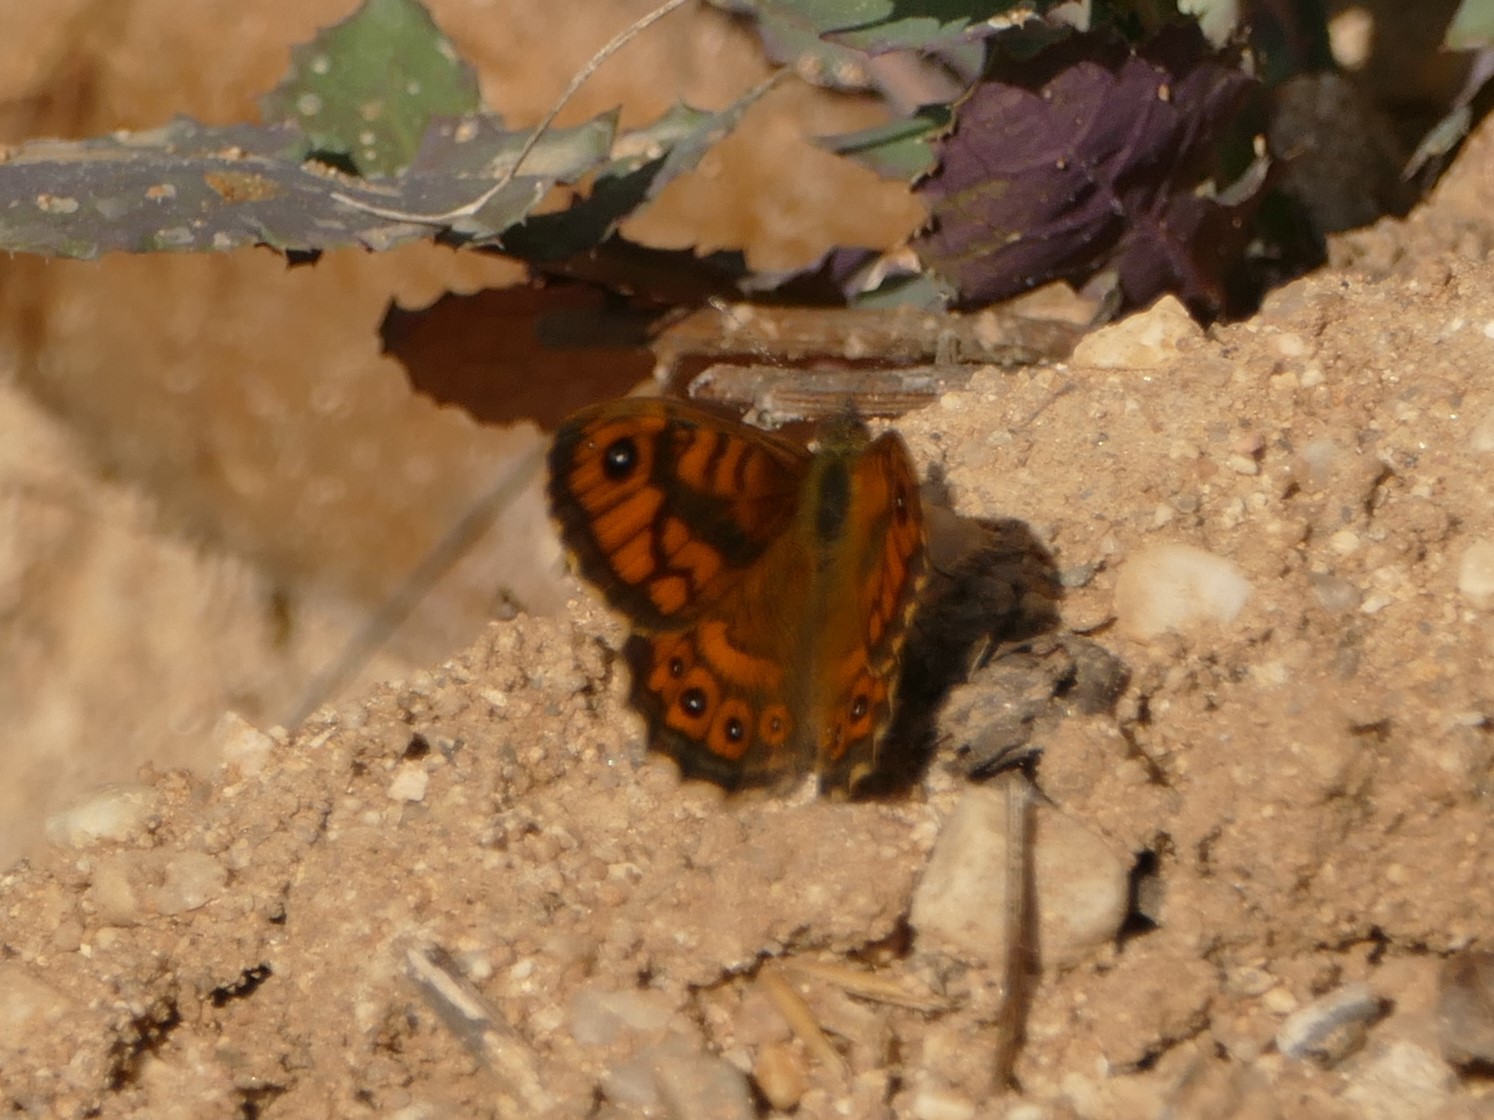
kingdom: Animalia
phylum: Arthropoda
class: Insecta
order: Lepidoptera
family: Nymphalidae
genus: Pararge
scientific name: Pararge Lasiommata megera
